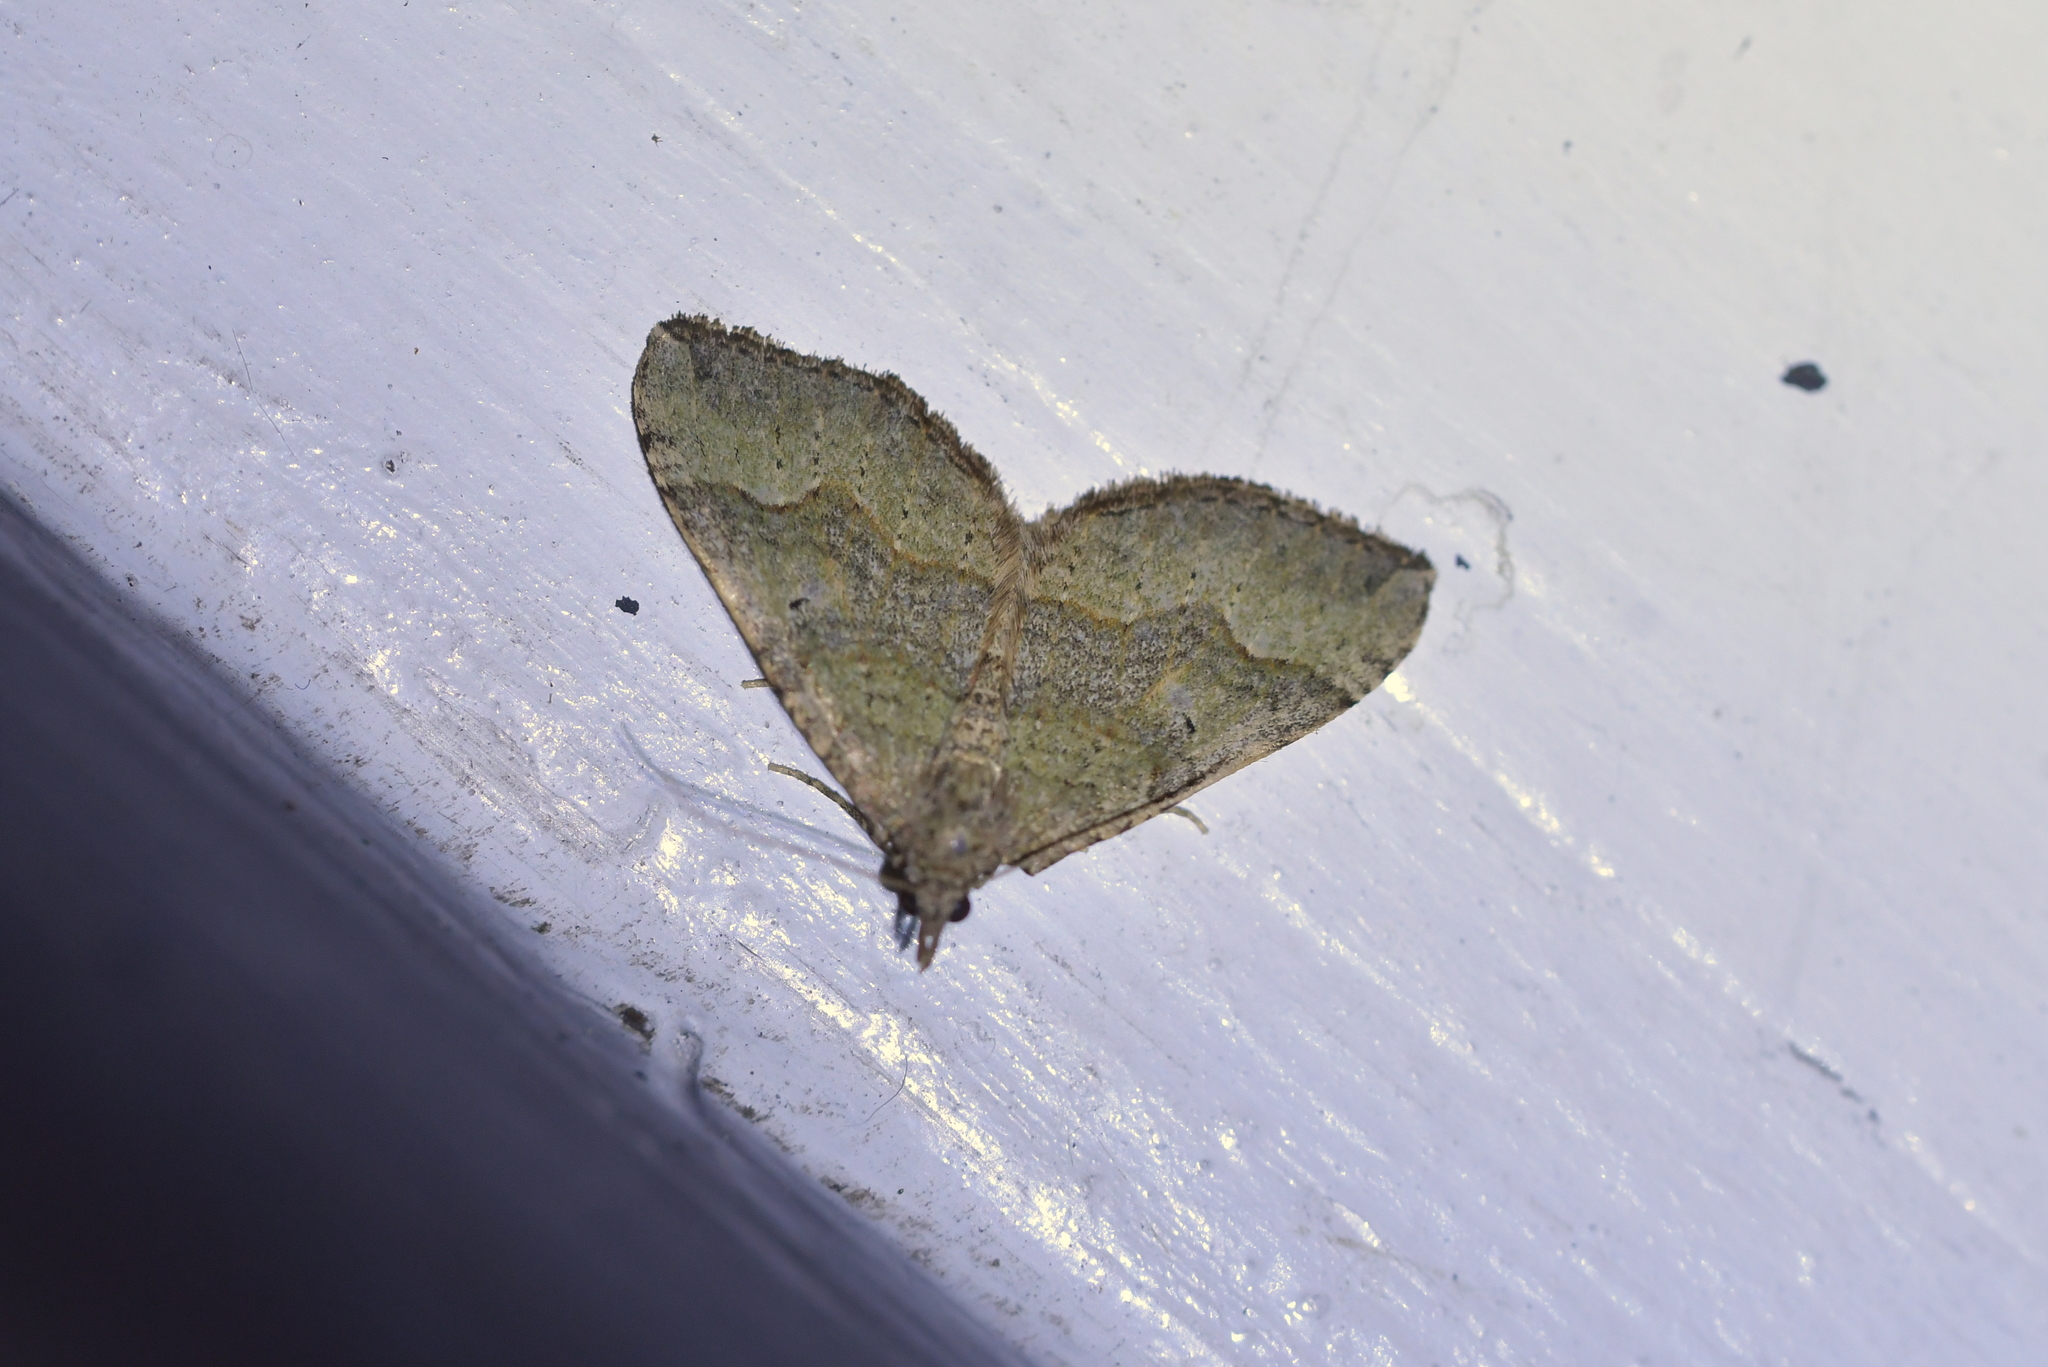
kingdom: Animalia
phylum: Arthropoda
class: Insecta
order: Lepidoptera
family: Geometridae
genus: Epyaxa
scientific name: Epyaxa rosearia
